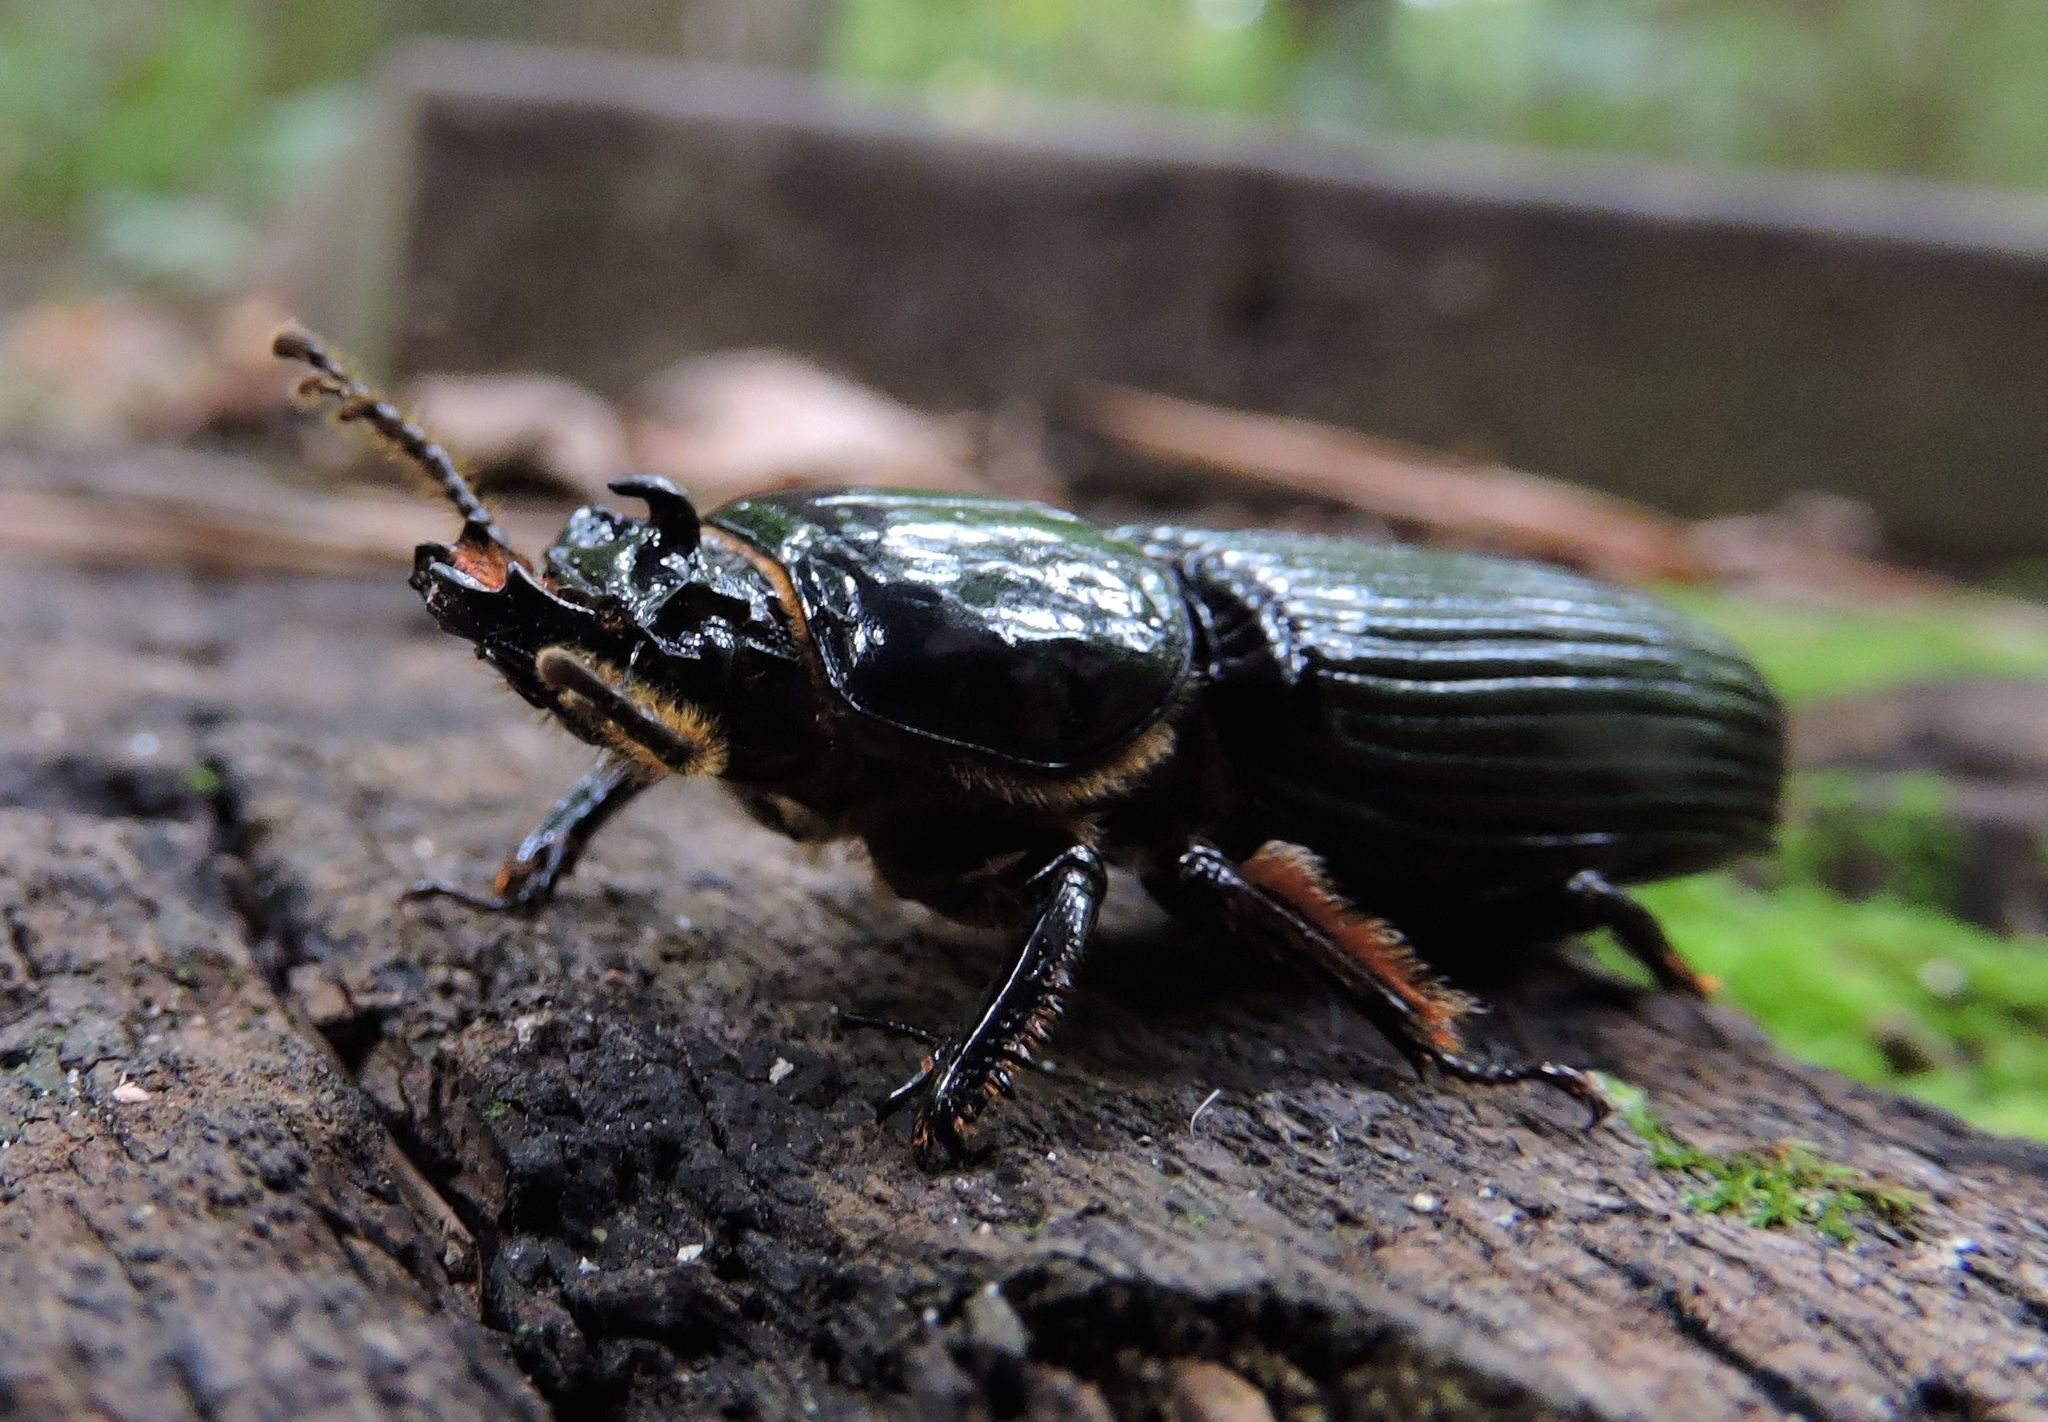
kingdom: Animalia
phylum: Arthropoda
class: Insecta
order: Coleoptera
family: Passalidae
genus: Odontotaenius
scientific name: Odontotaenius disjunctus
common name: Patent leather beetle
